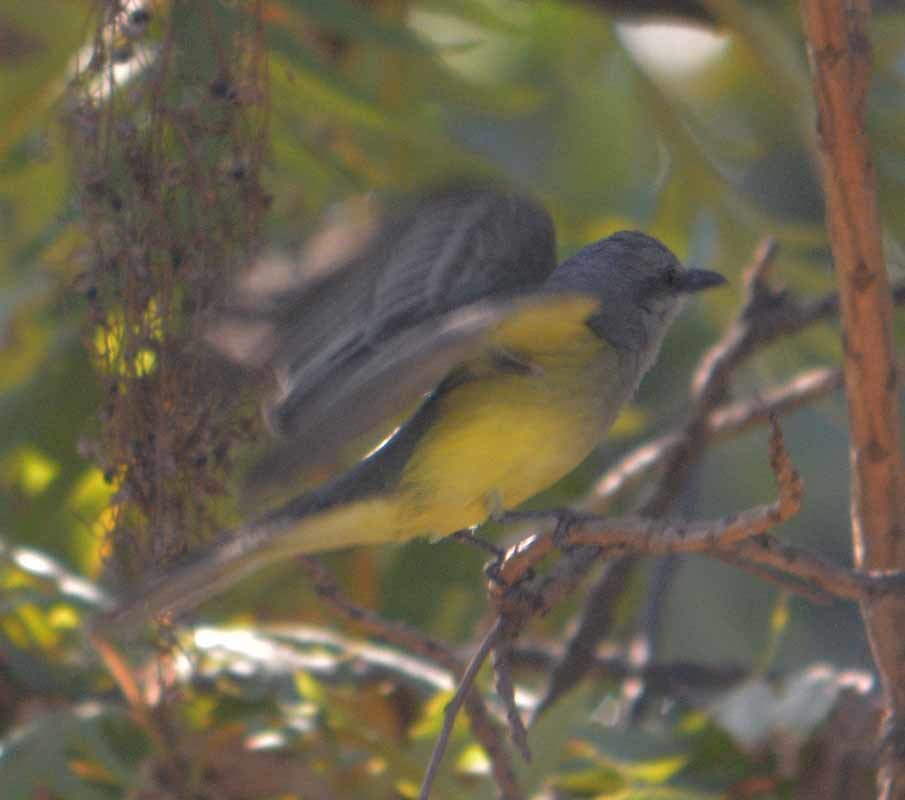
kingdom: Animalia
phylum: Chordata
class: Aves
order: Passeriformes
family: Tyrannidae
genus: Tyrannus
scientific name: Tyrannus melancholicus
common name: Tropical kingbird
